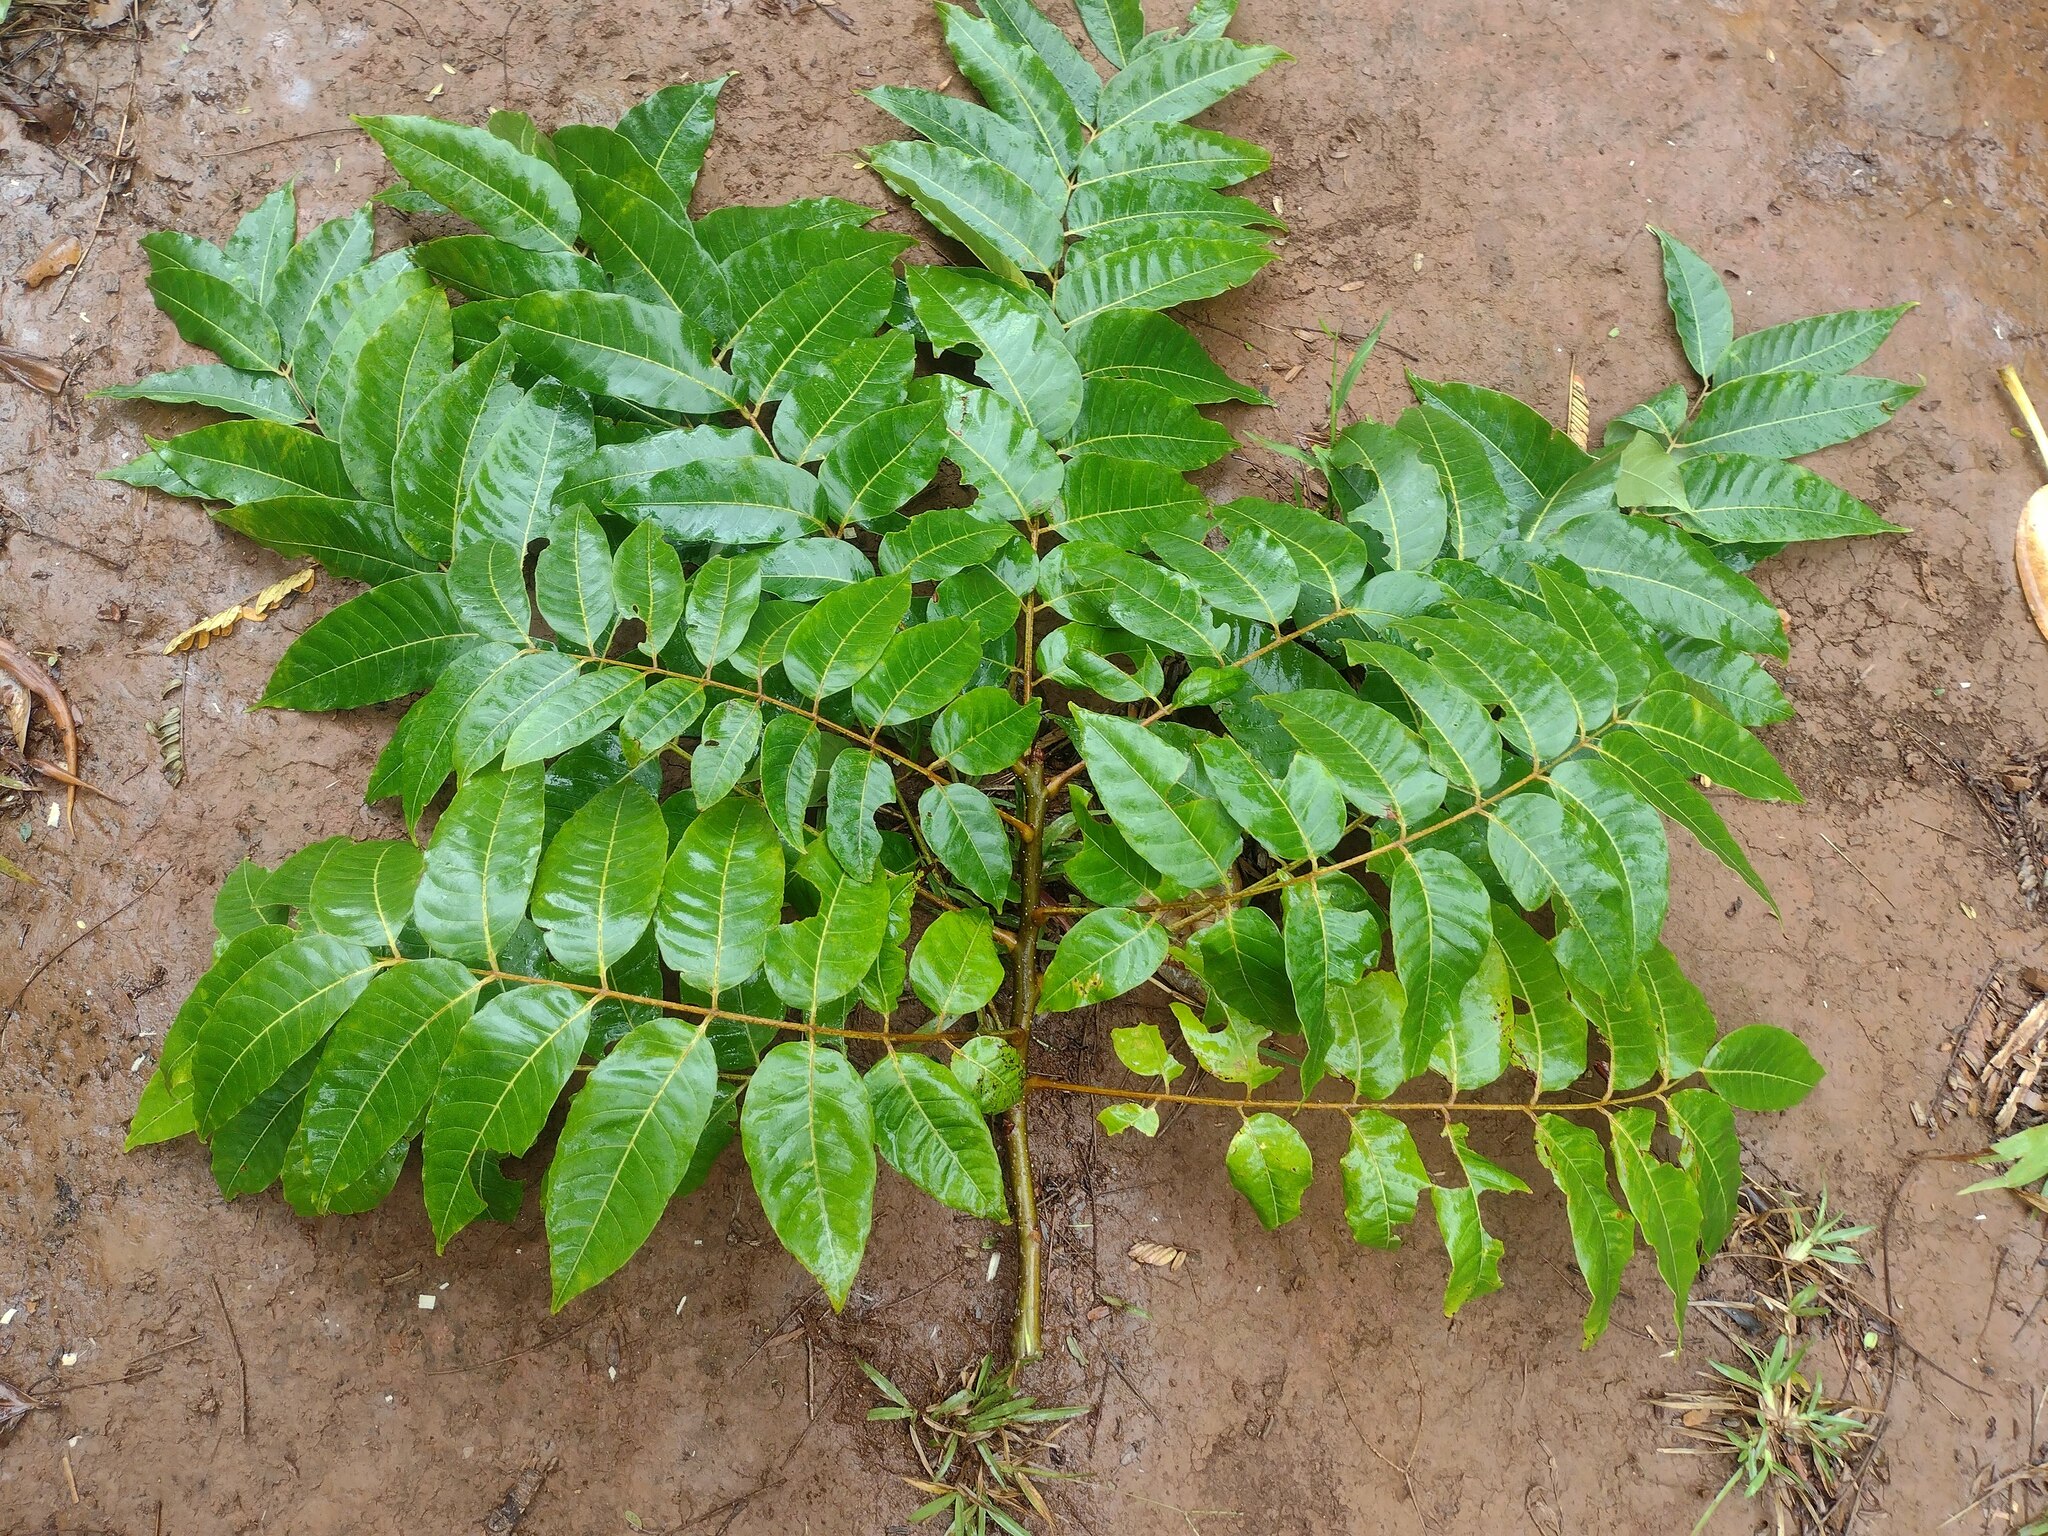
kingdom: Plantae
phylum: Tracheophyta
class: Magnoliopsida
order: Sapindales
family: Meliaceae
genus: Toona
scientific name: Toona ciliata
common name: Australian redcedar
